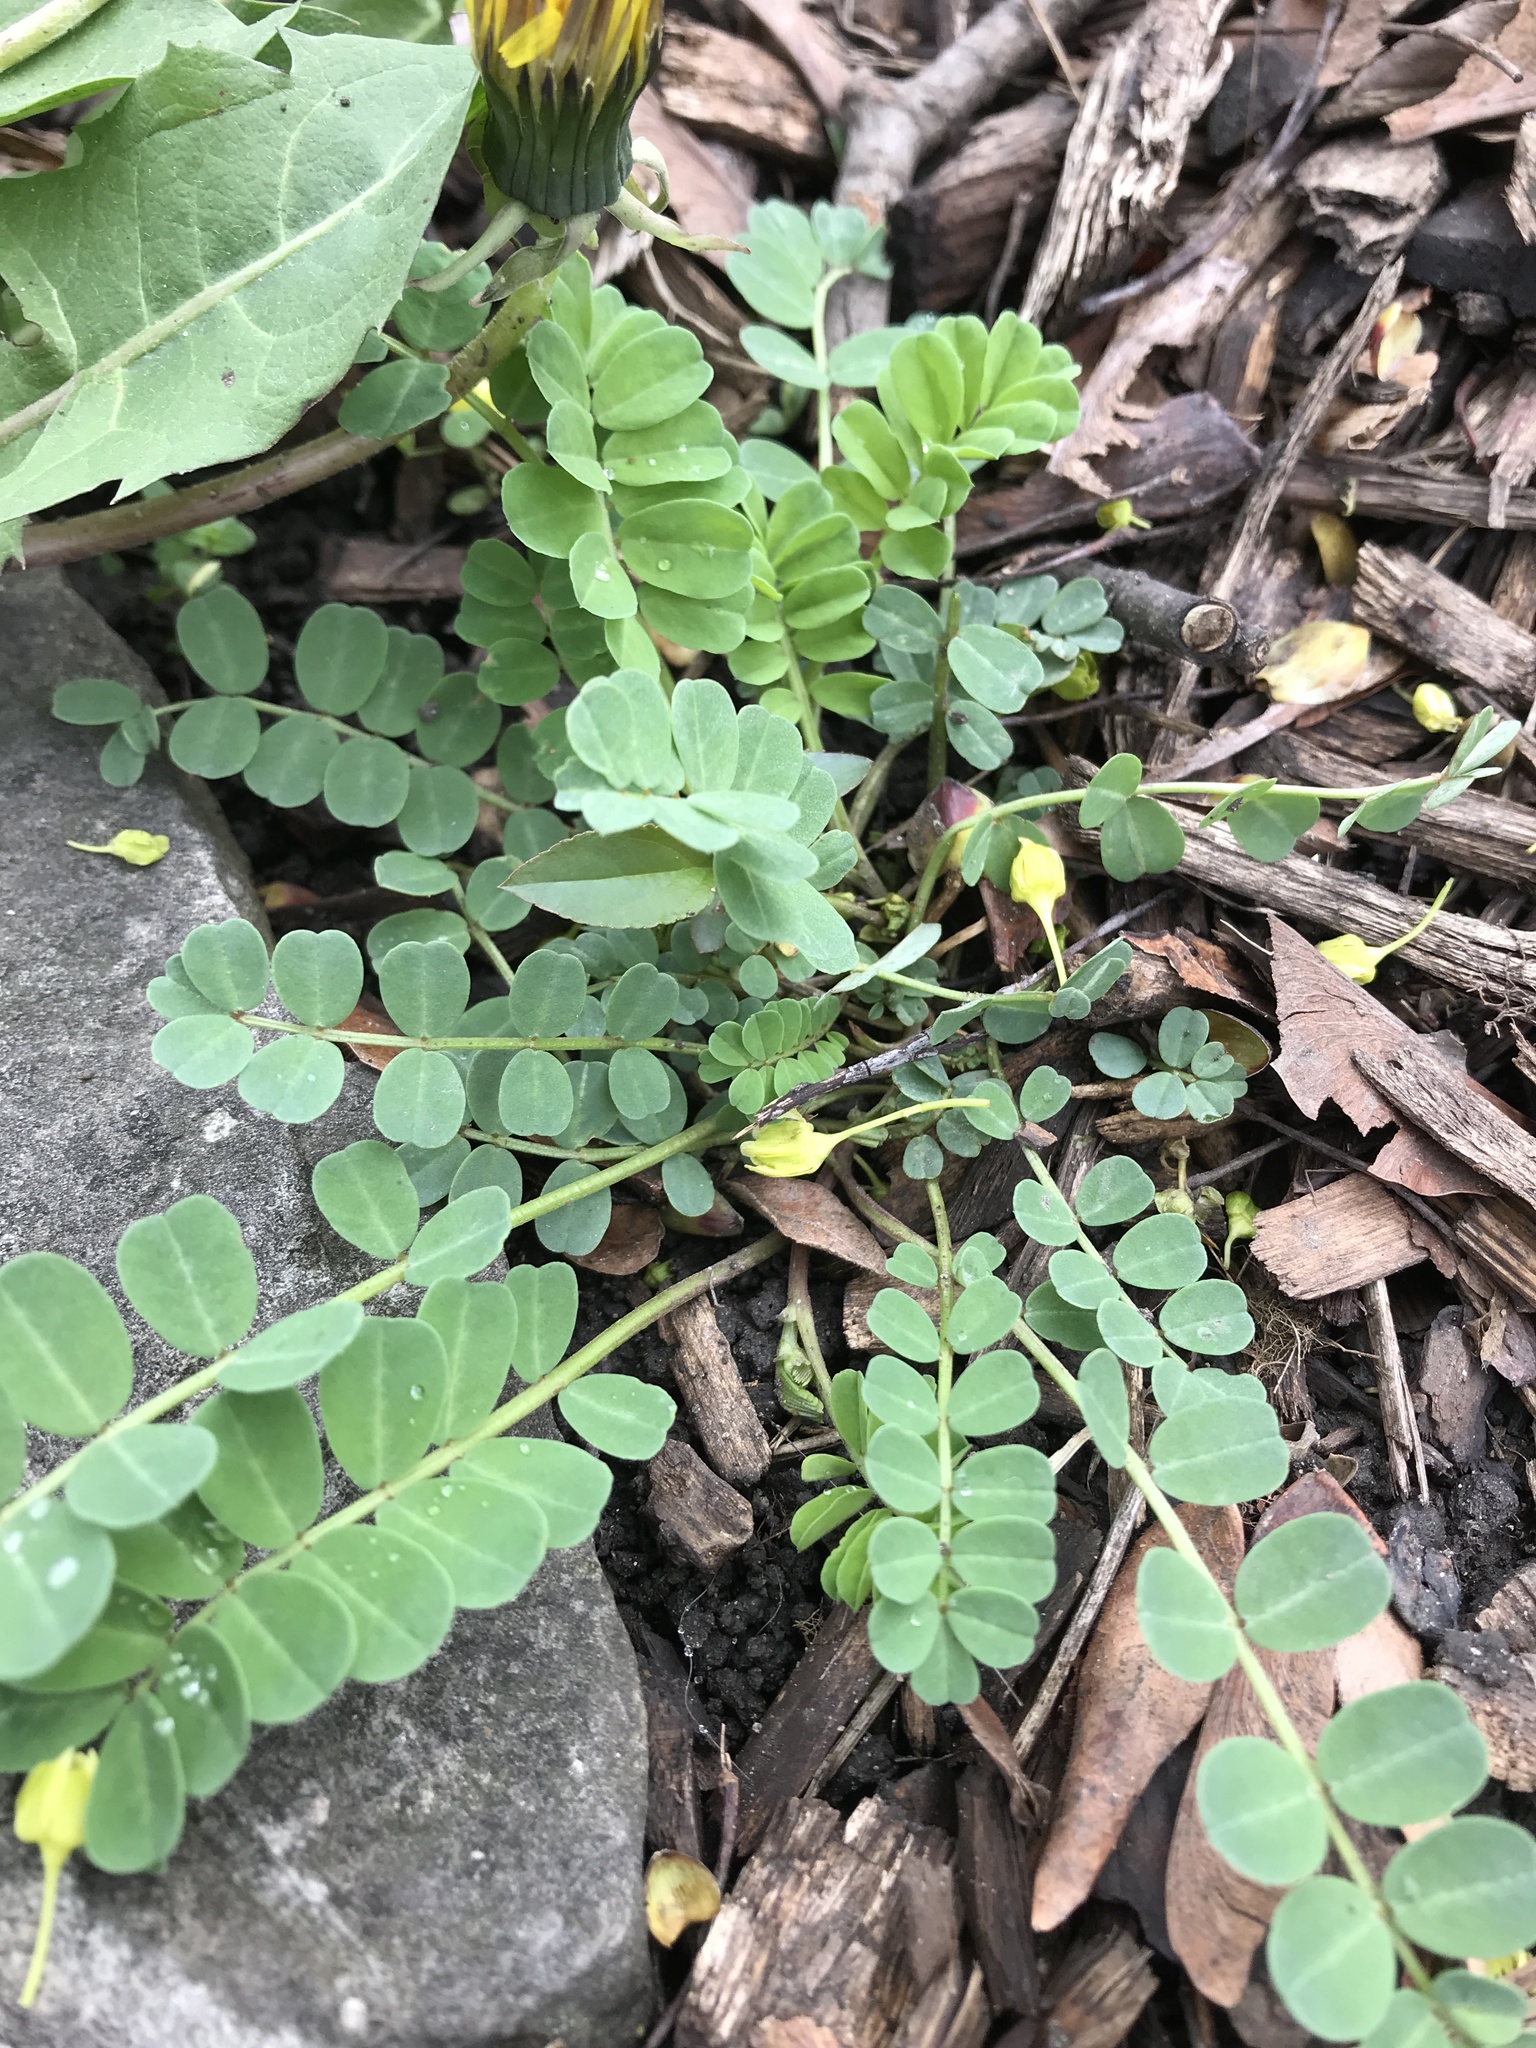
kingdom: Plantae
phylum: Tracheophyta
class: Magnoliopsida
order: Fabales
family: Fabaceae
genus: Coronilla
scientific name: Coronilla varia
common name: Crownvetch
